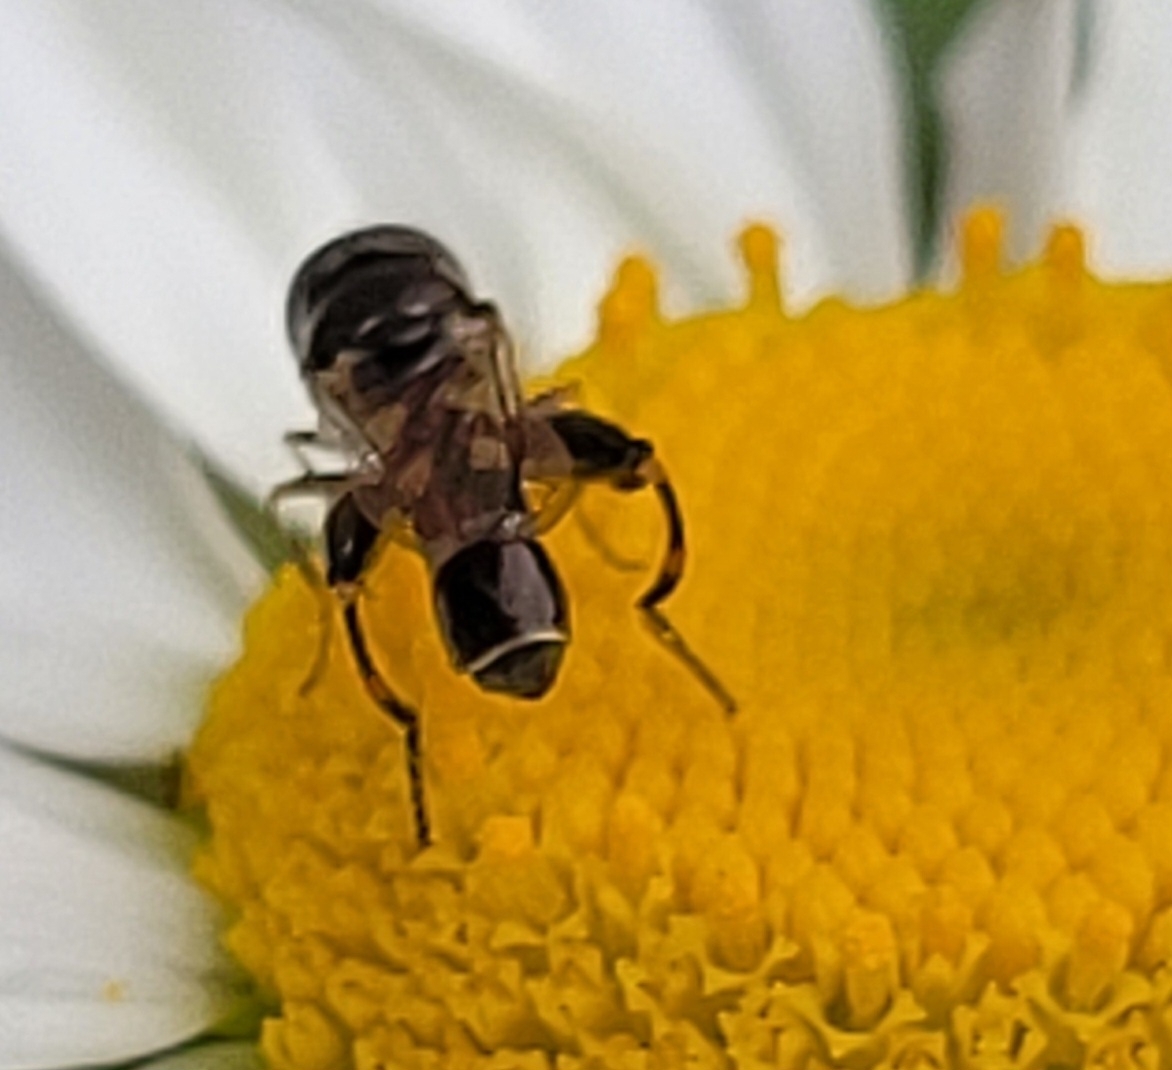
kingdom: Animalia
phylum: Arthropoda
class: Insecta
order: Diptera
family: Syrphidae
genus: Syritta
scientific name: Syritta pipiens
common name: Hover fly
